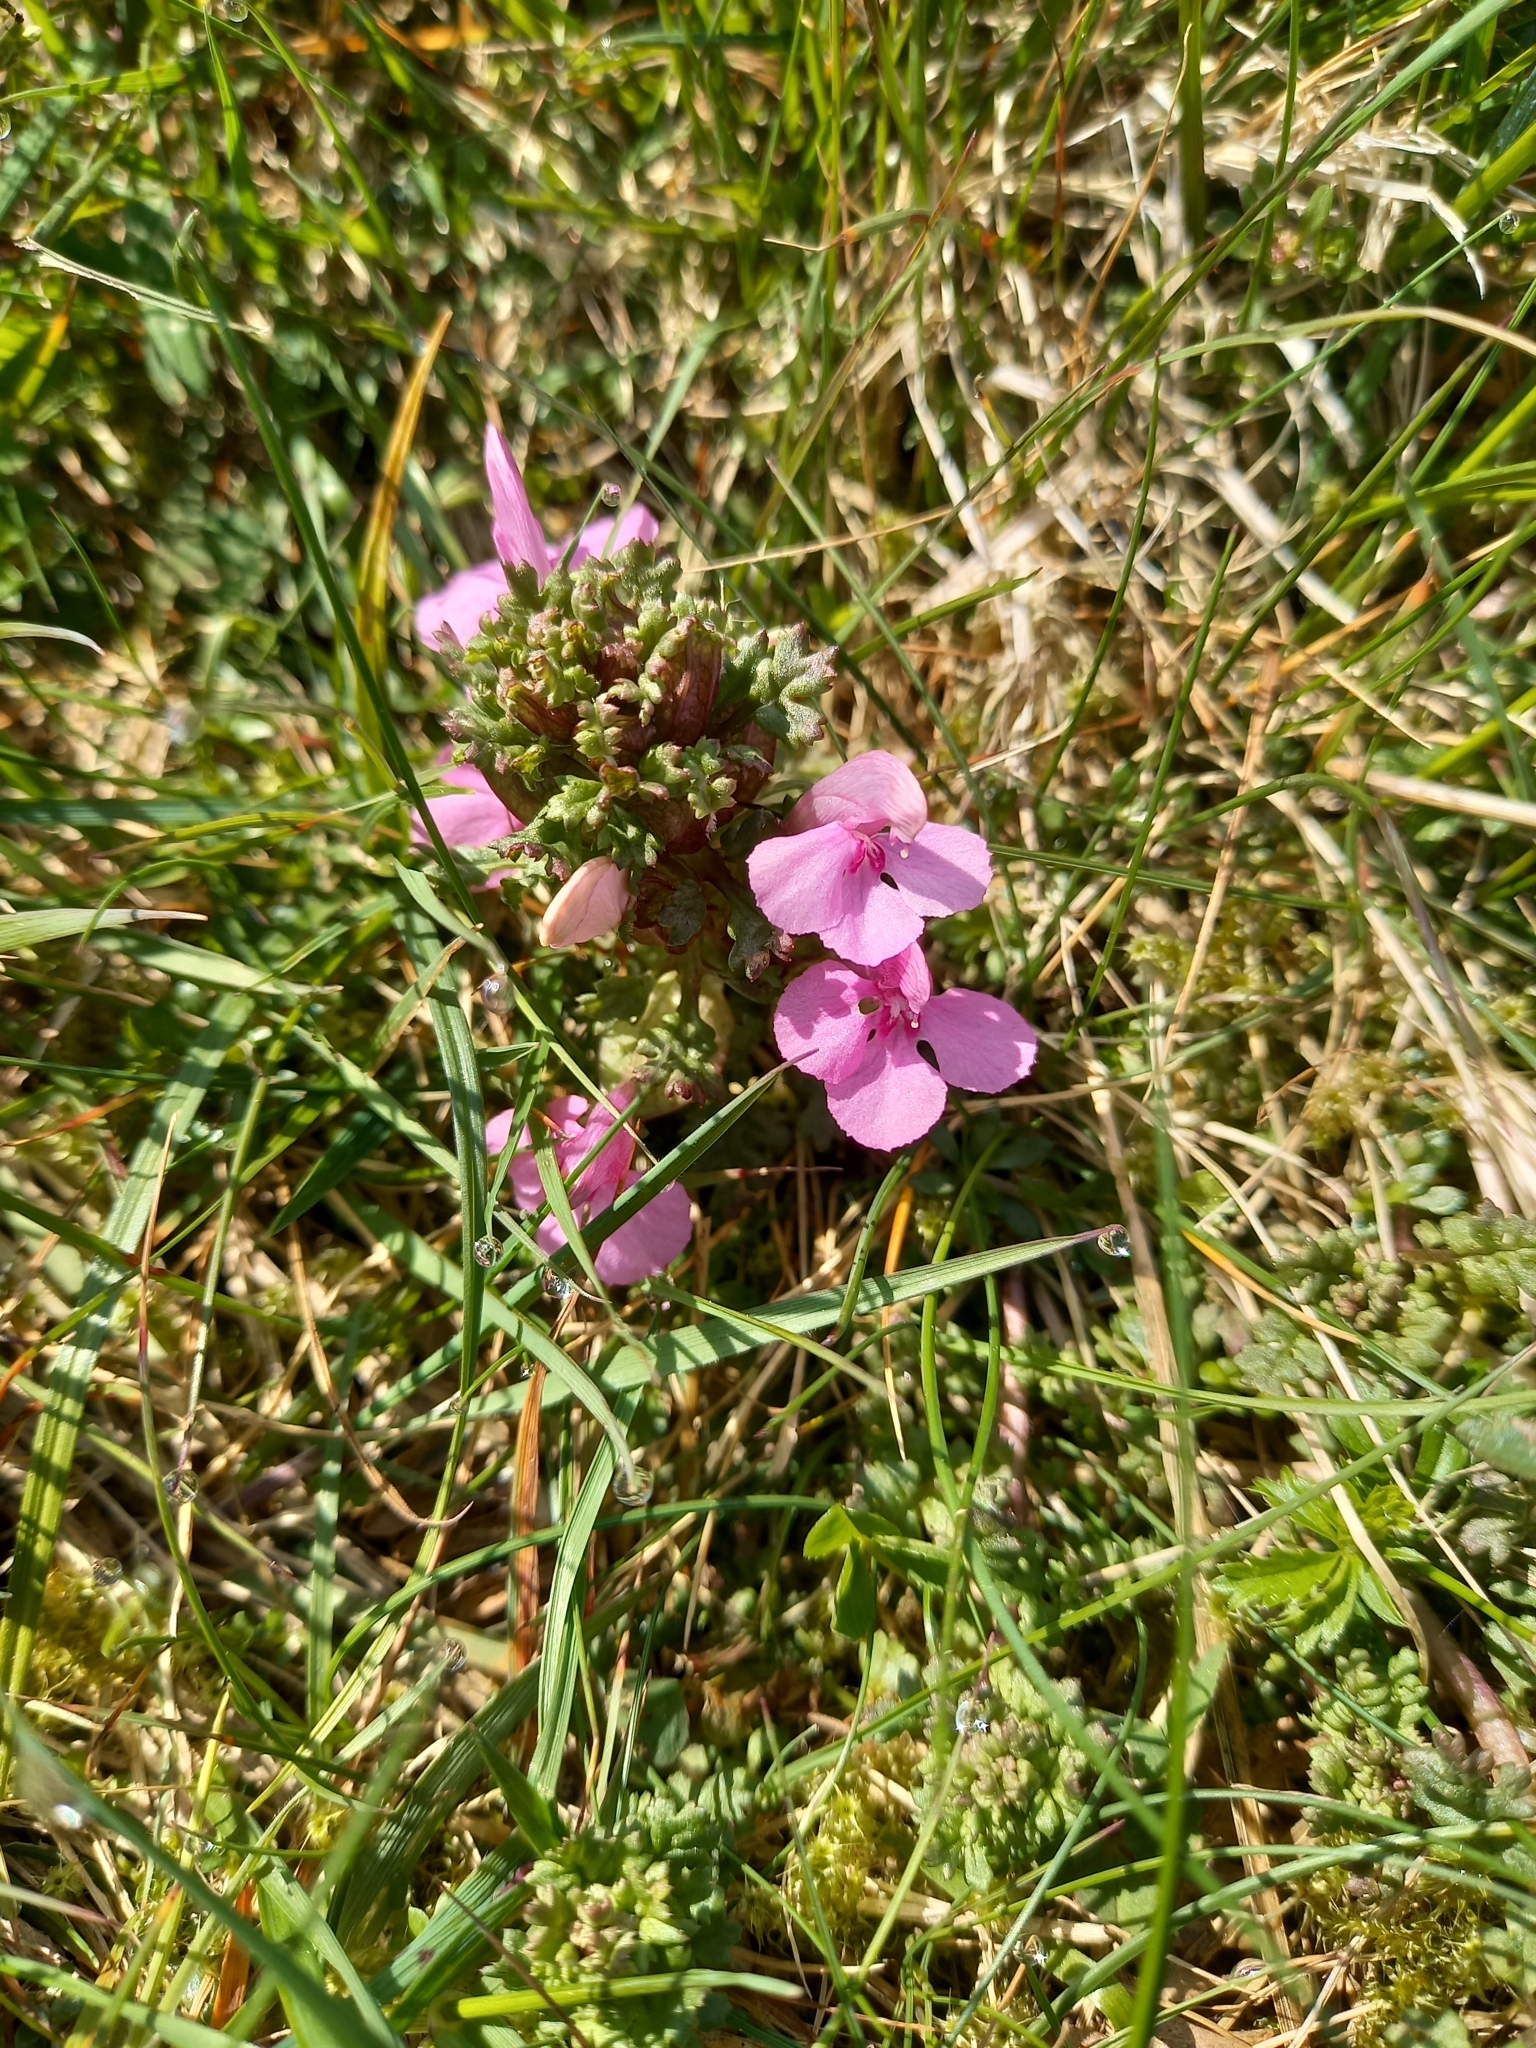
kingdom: Plantae
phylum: Tracheophyta
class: Magnoliopsida
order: Lamiales
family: Orobanchaceae
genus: Pedicularis
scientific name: Pedicularis sylvatica
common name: Lousewort
